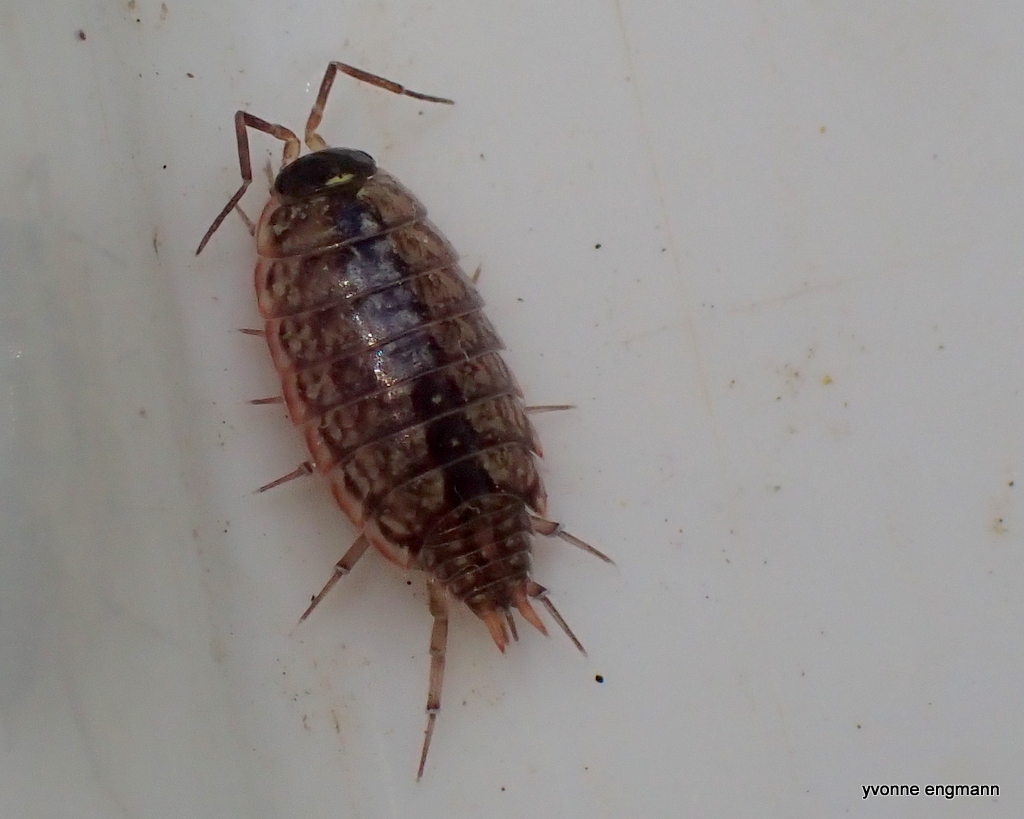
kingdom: Animalia
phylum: Arthropoda
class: Malacostraca
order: Isopoda
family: Philosciidae
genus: Philoscia
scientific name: Philoscia muscorum
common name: Common striped woodlouse
